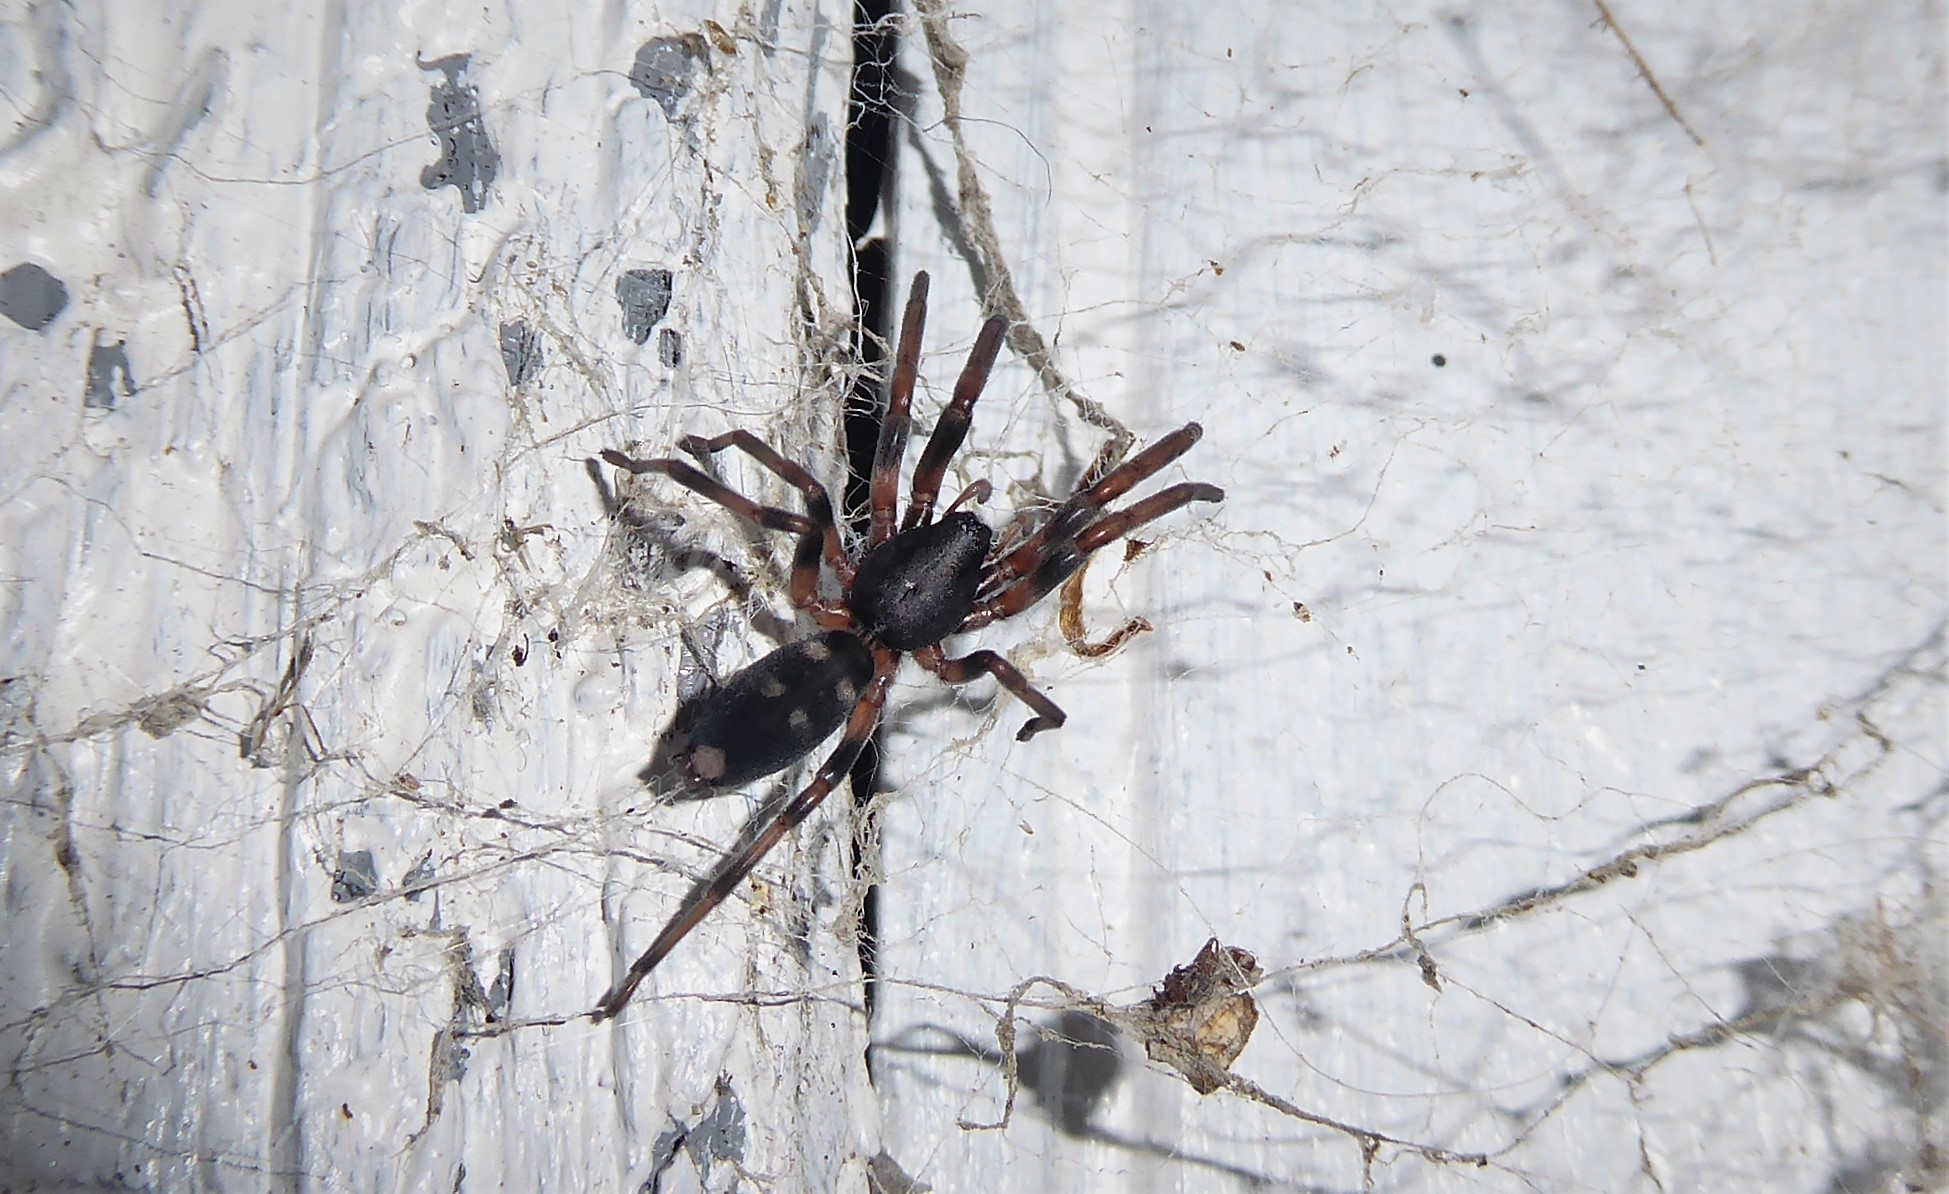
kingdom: Animalia
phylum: Arthropoda
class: Arachnida
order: Araneae
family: Lamponidae
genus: Lampona
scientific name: Lampona cylindrata
